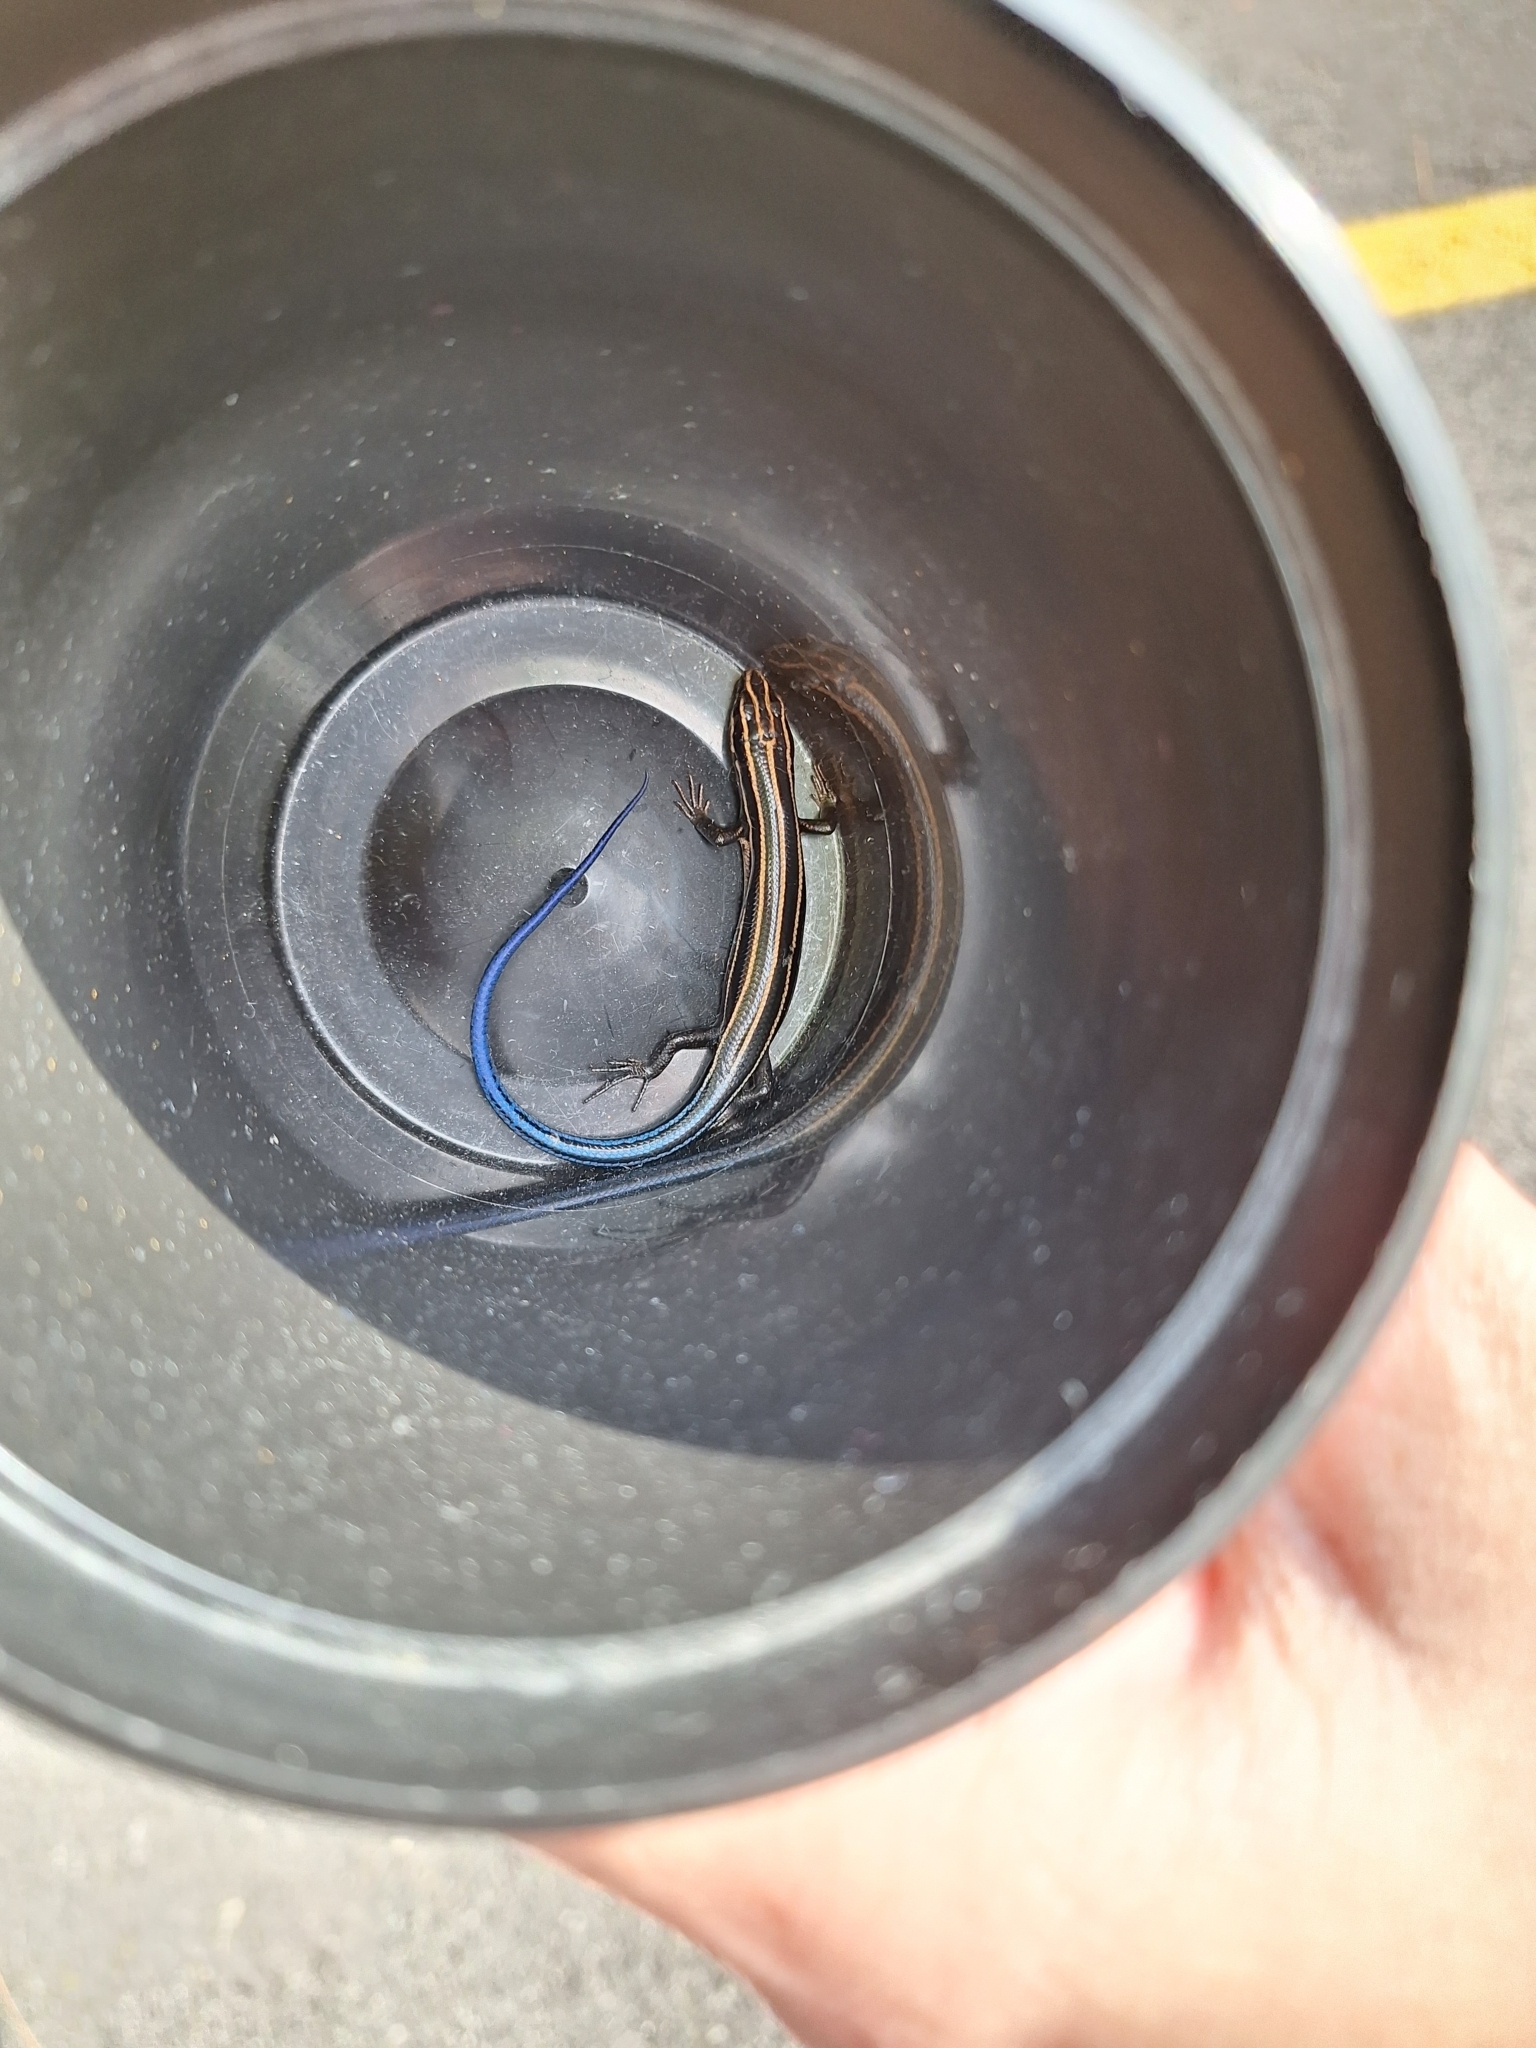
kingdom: Animalia
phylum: Chordata
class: Squamata
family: Scincidae
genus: Plestiodon
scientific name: Plestiodon fasciatus
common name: Five-lined skink
